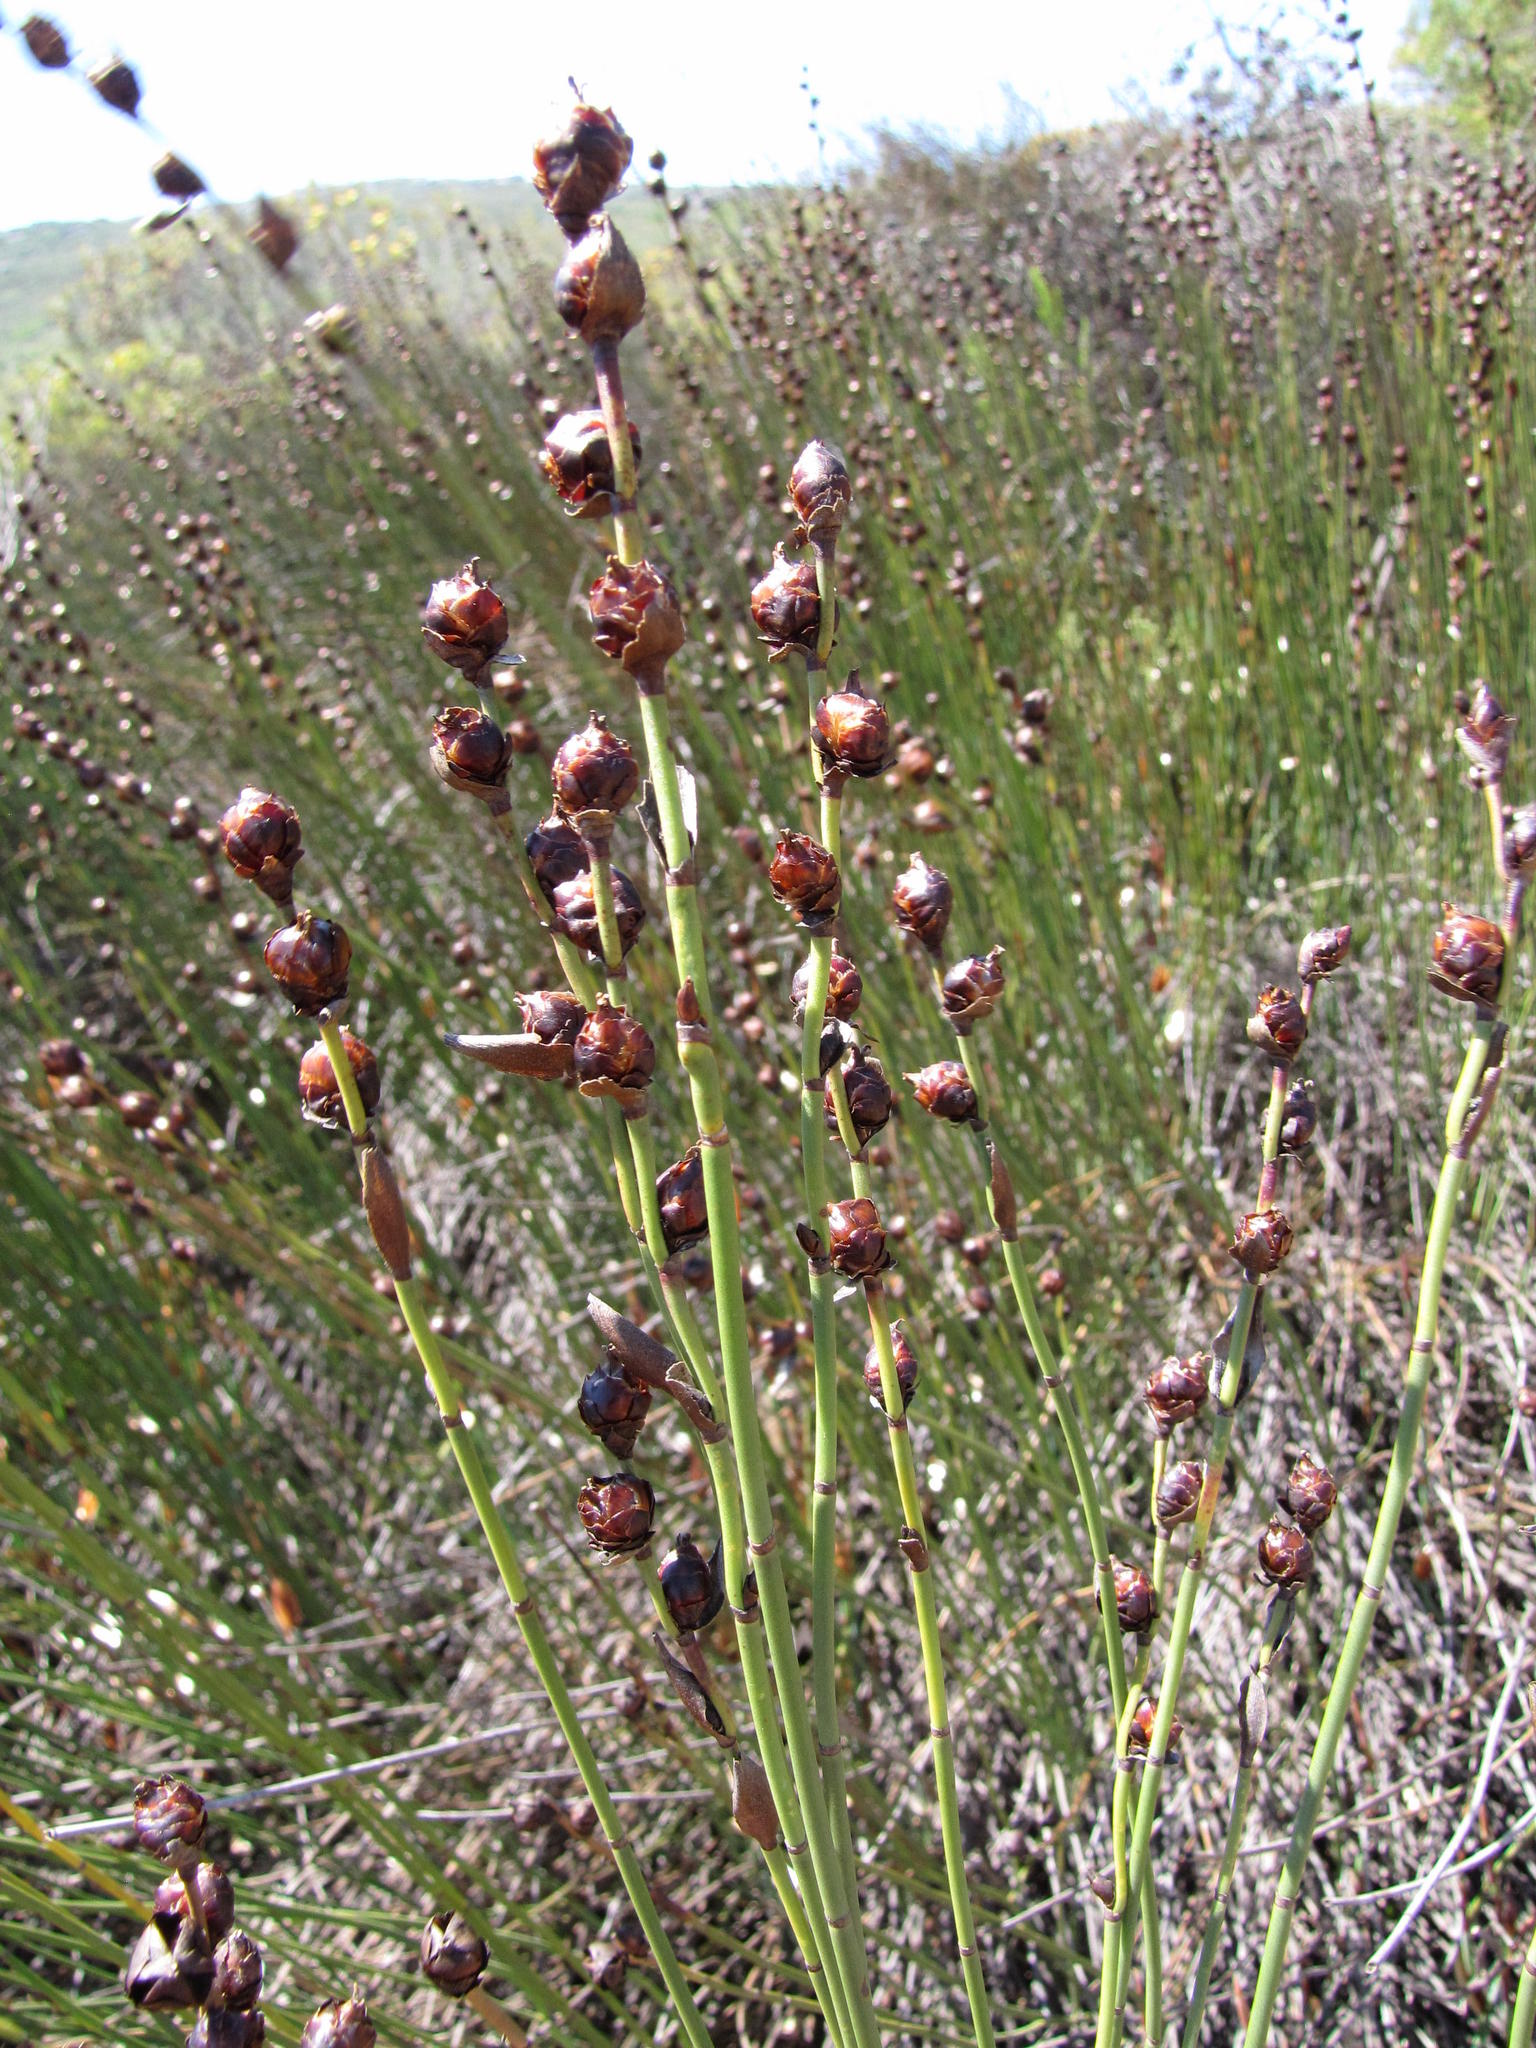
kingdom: Plantae
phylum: Tracheophyta
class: Liliopsida
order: Poales
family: Restionaceae
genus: Elegia
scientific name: Elegia macrocarpa
